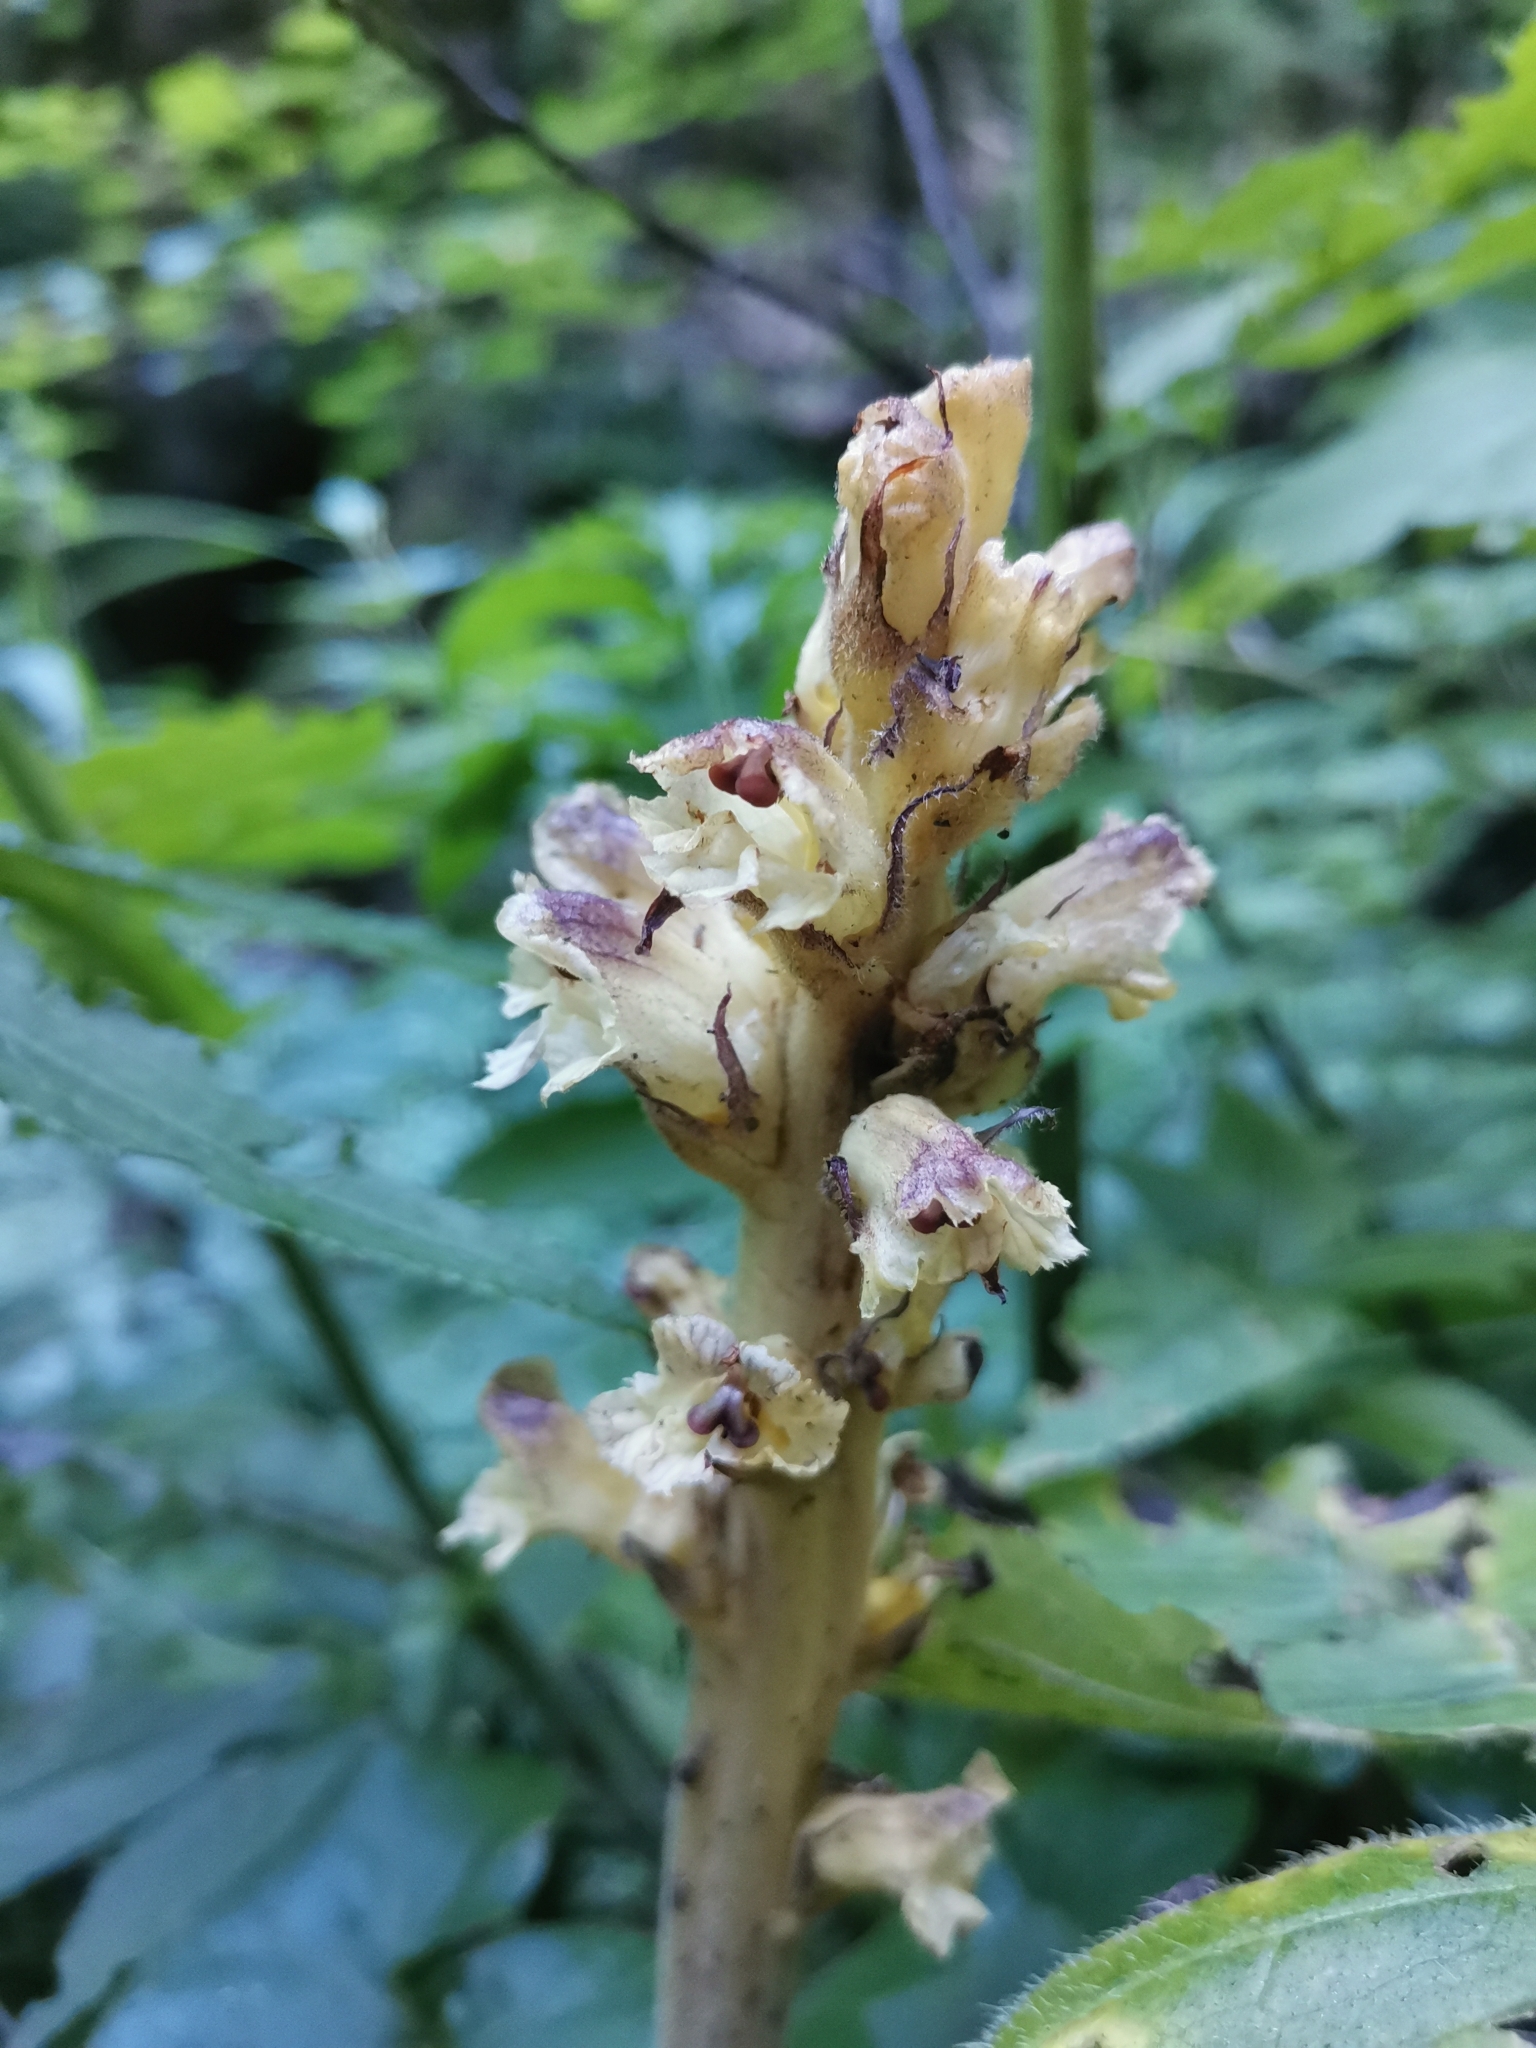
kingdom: Plantae
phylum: Tracheophyta
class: Magnoliopsida
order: Lamiales
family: Orobanchaceae
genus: Orobanche
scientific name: Orobanche reticulata
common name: Thistle broomrape
